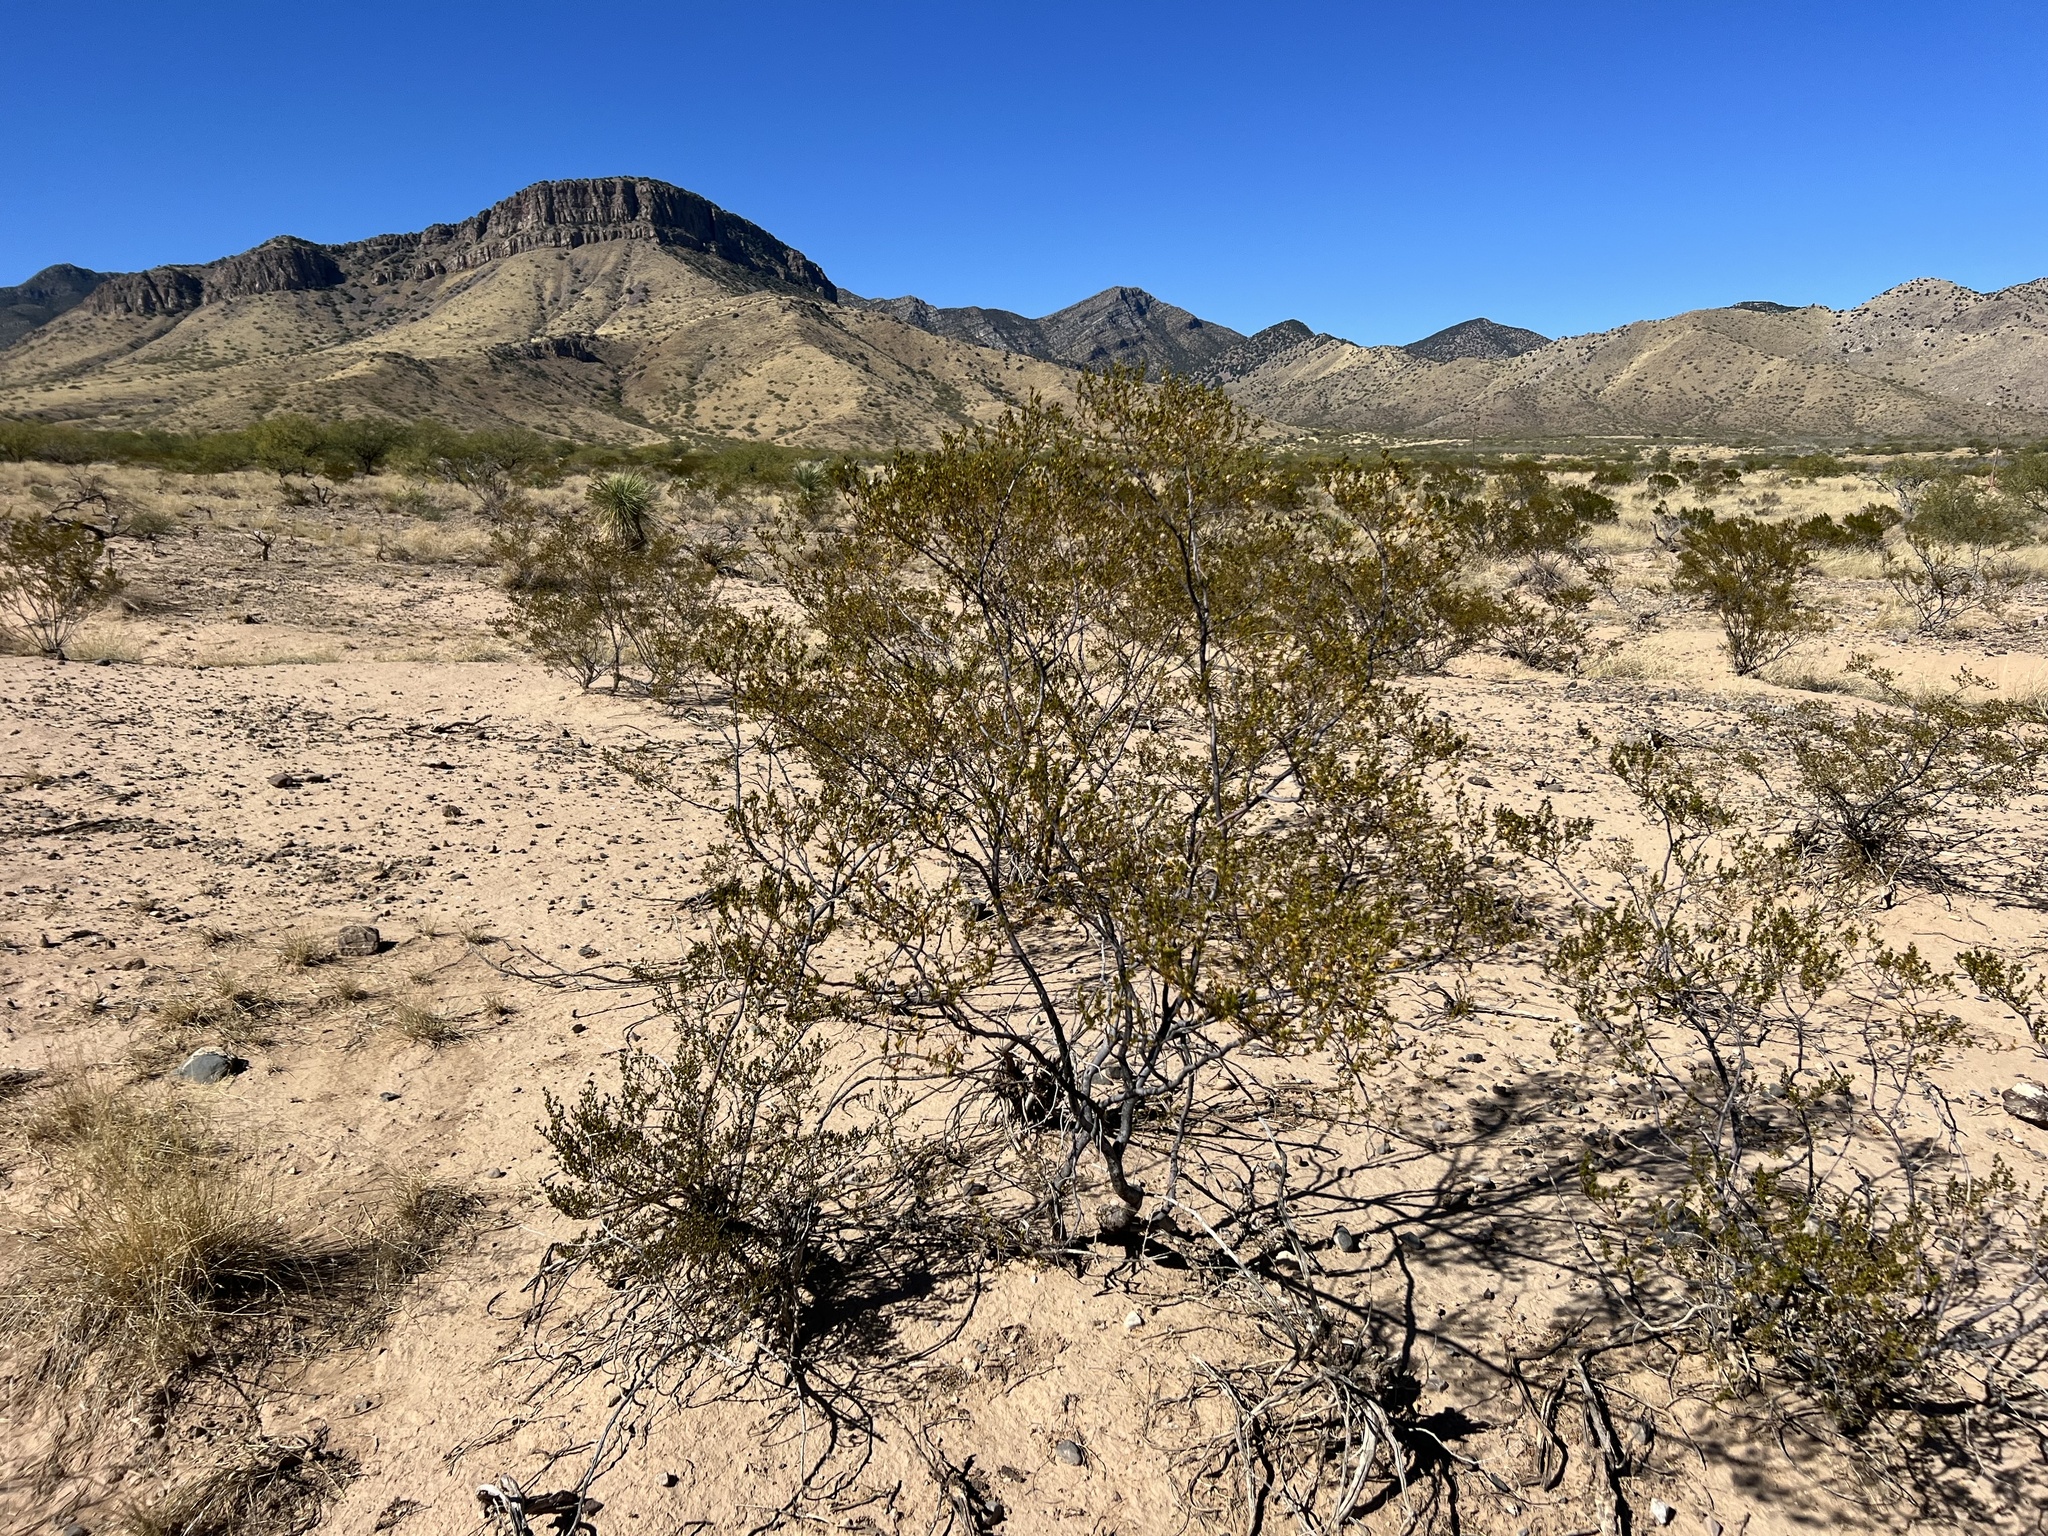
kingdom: Plantae
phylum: Tracheophyta
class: Magnoliopsida
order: Zygophyllales
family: Zygophyllaceae
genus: Larrea
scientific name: Larrea tridentata
